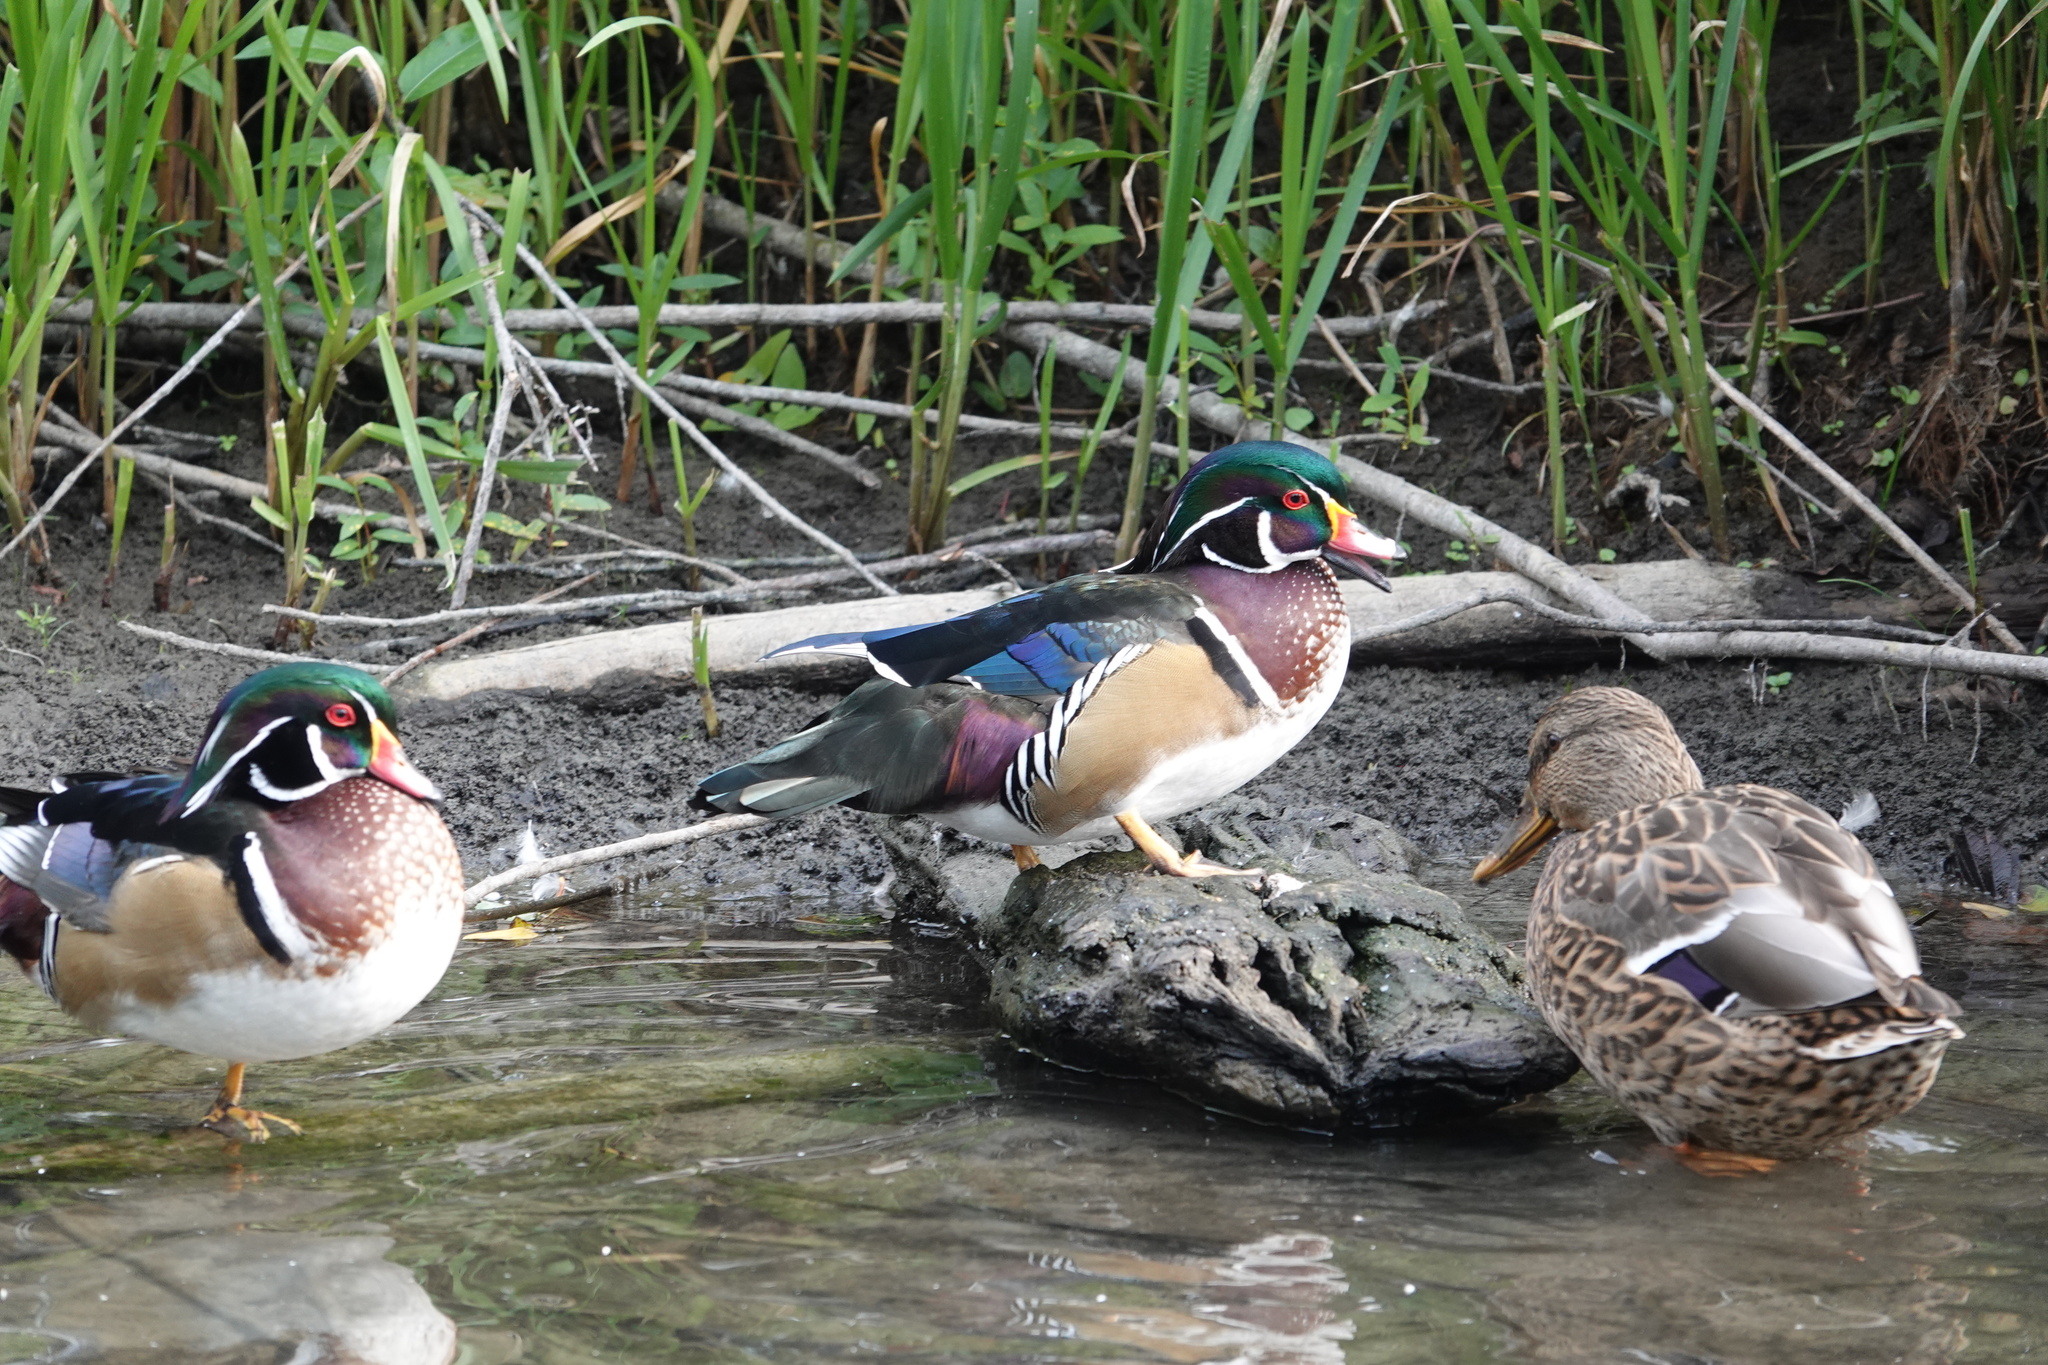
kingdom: Animalia
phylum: Chordata
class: Aves
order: Anseriformes
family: Anatidae
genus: Aix
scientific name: Aix sponsa
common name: Wood duck
